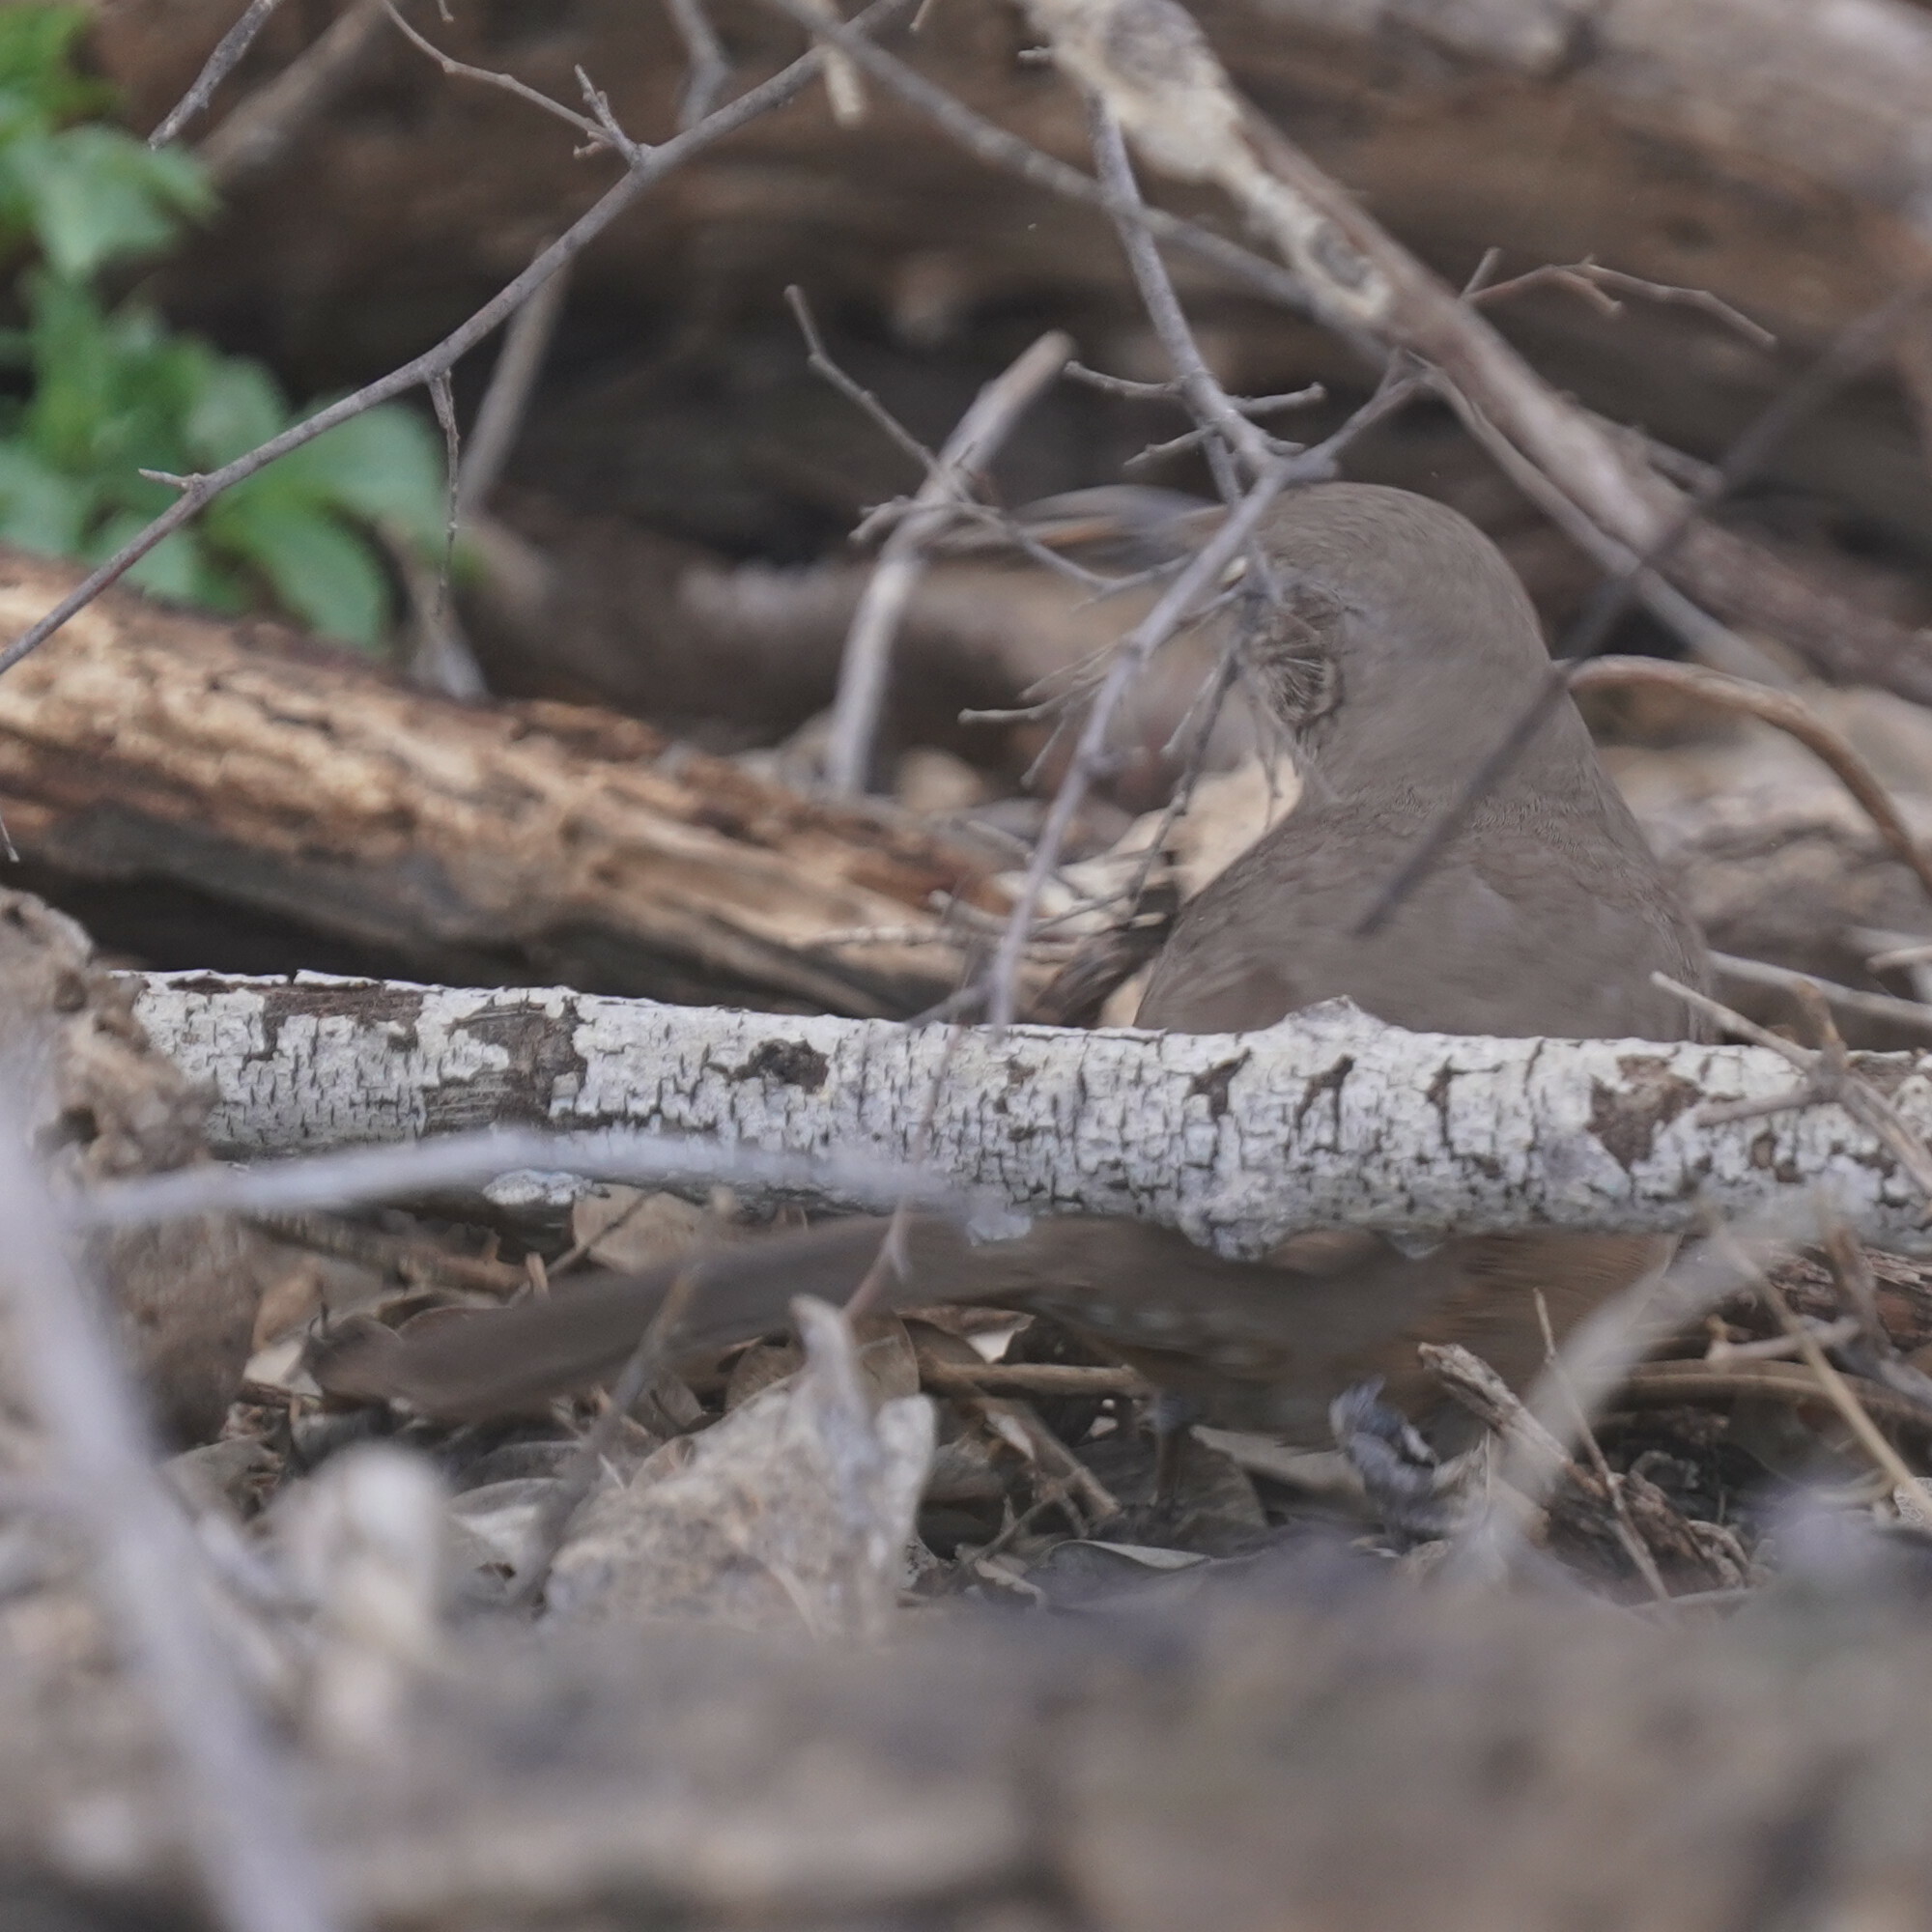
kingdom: Animalia
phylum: Chordata
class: Aves
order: Passeriformes
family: Mimidae
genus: Toxostoma
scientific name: Toxostoma curvirostre
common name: Curve-billed thrasher
